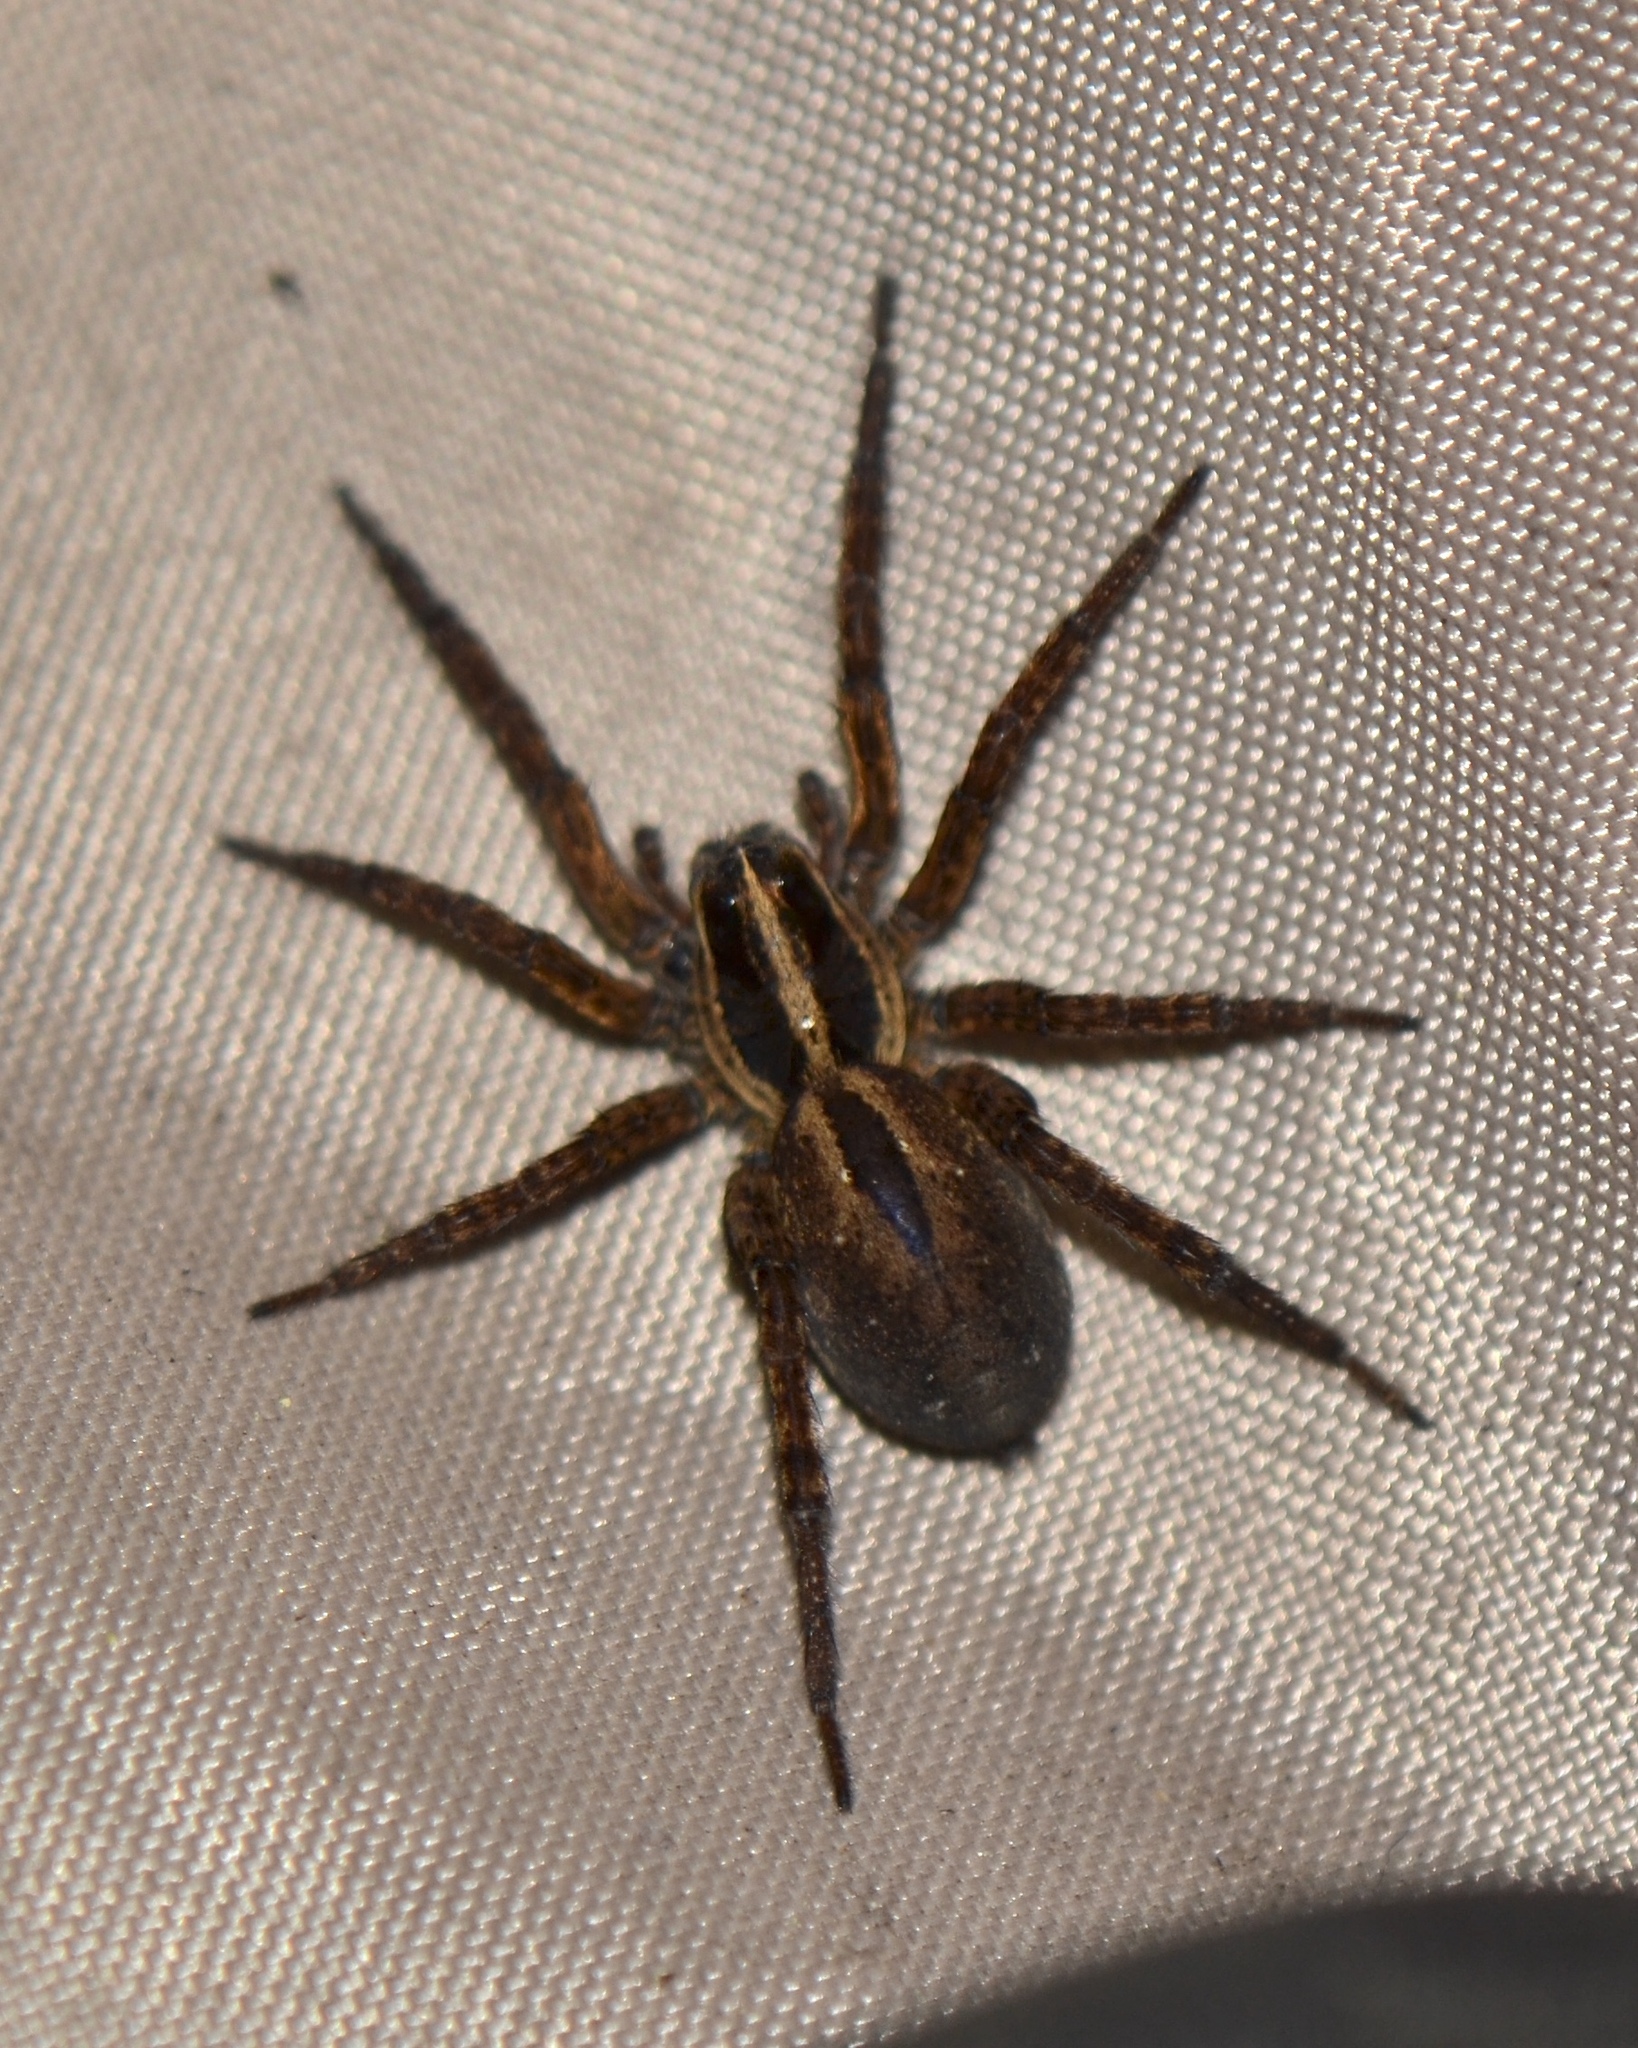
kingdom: Animalia
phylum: Arthropoda
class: Arachnida
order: Araneae
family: Lycosidae
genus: Tigrosa
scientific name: Tigrosa annexa
